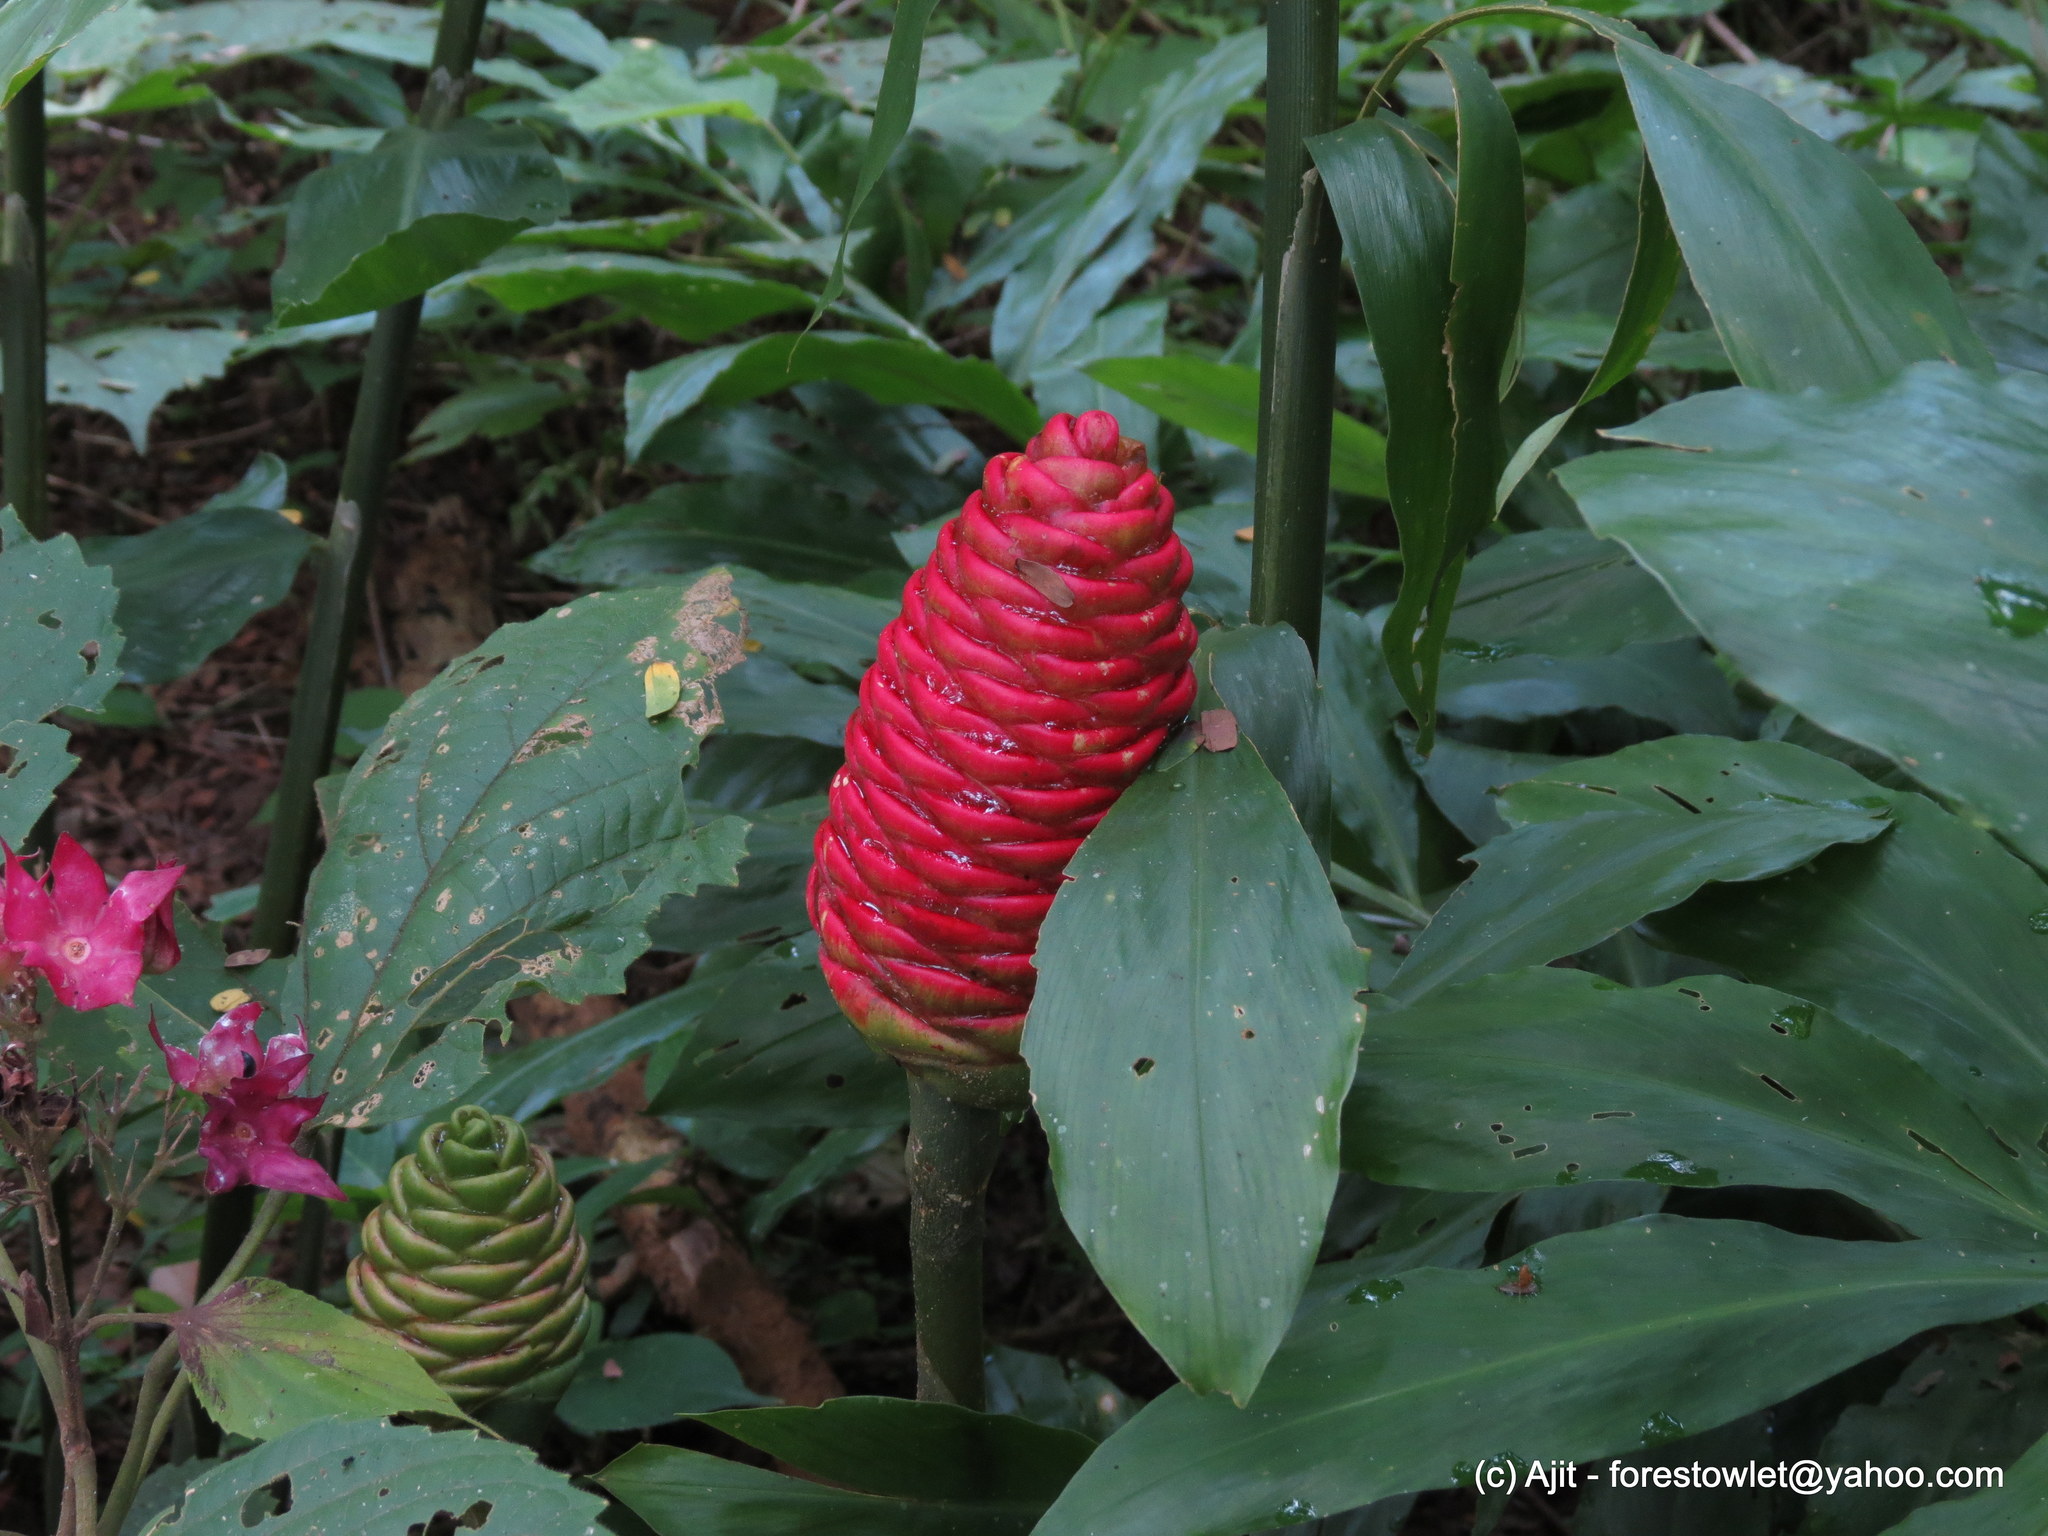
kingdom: Plantae
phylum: Tracheophyta
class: Liliopsida
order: Zingiberales
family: Zingiberaceae
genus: Zingiber
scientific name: Zingiber zerumbet
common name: Bitter ginger
